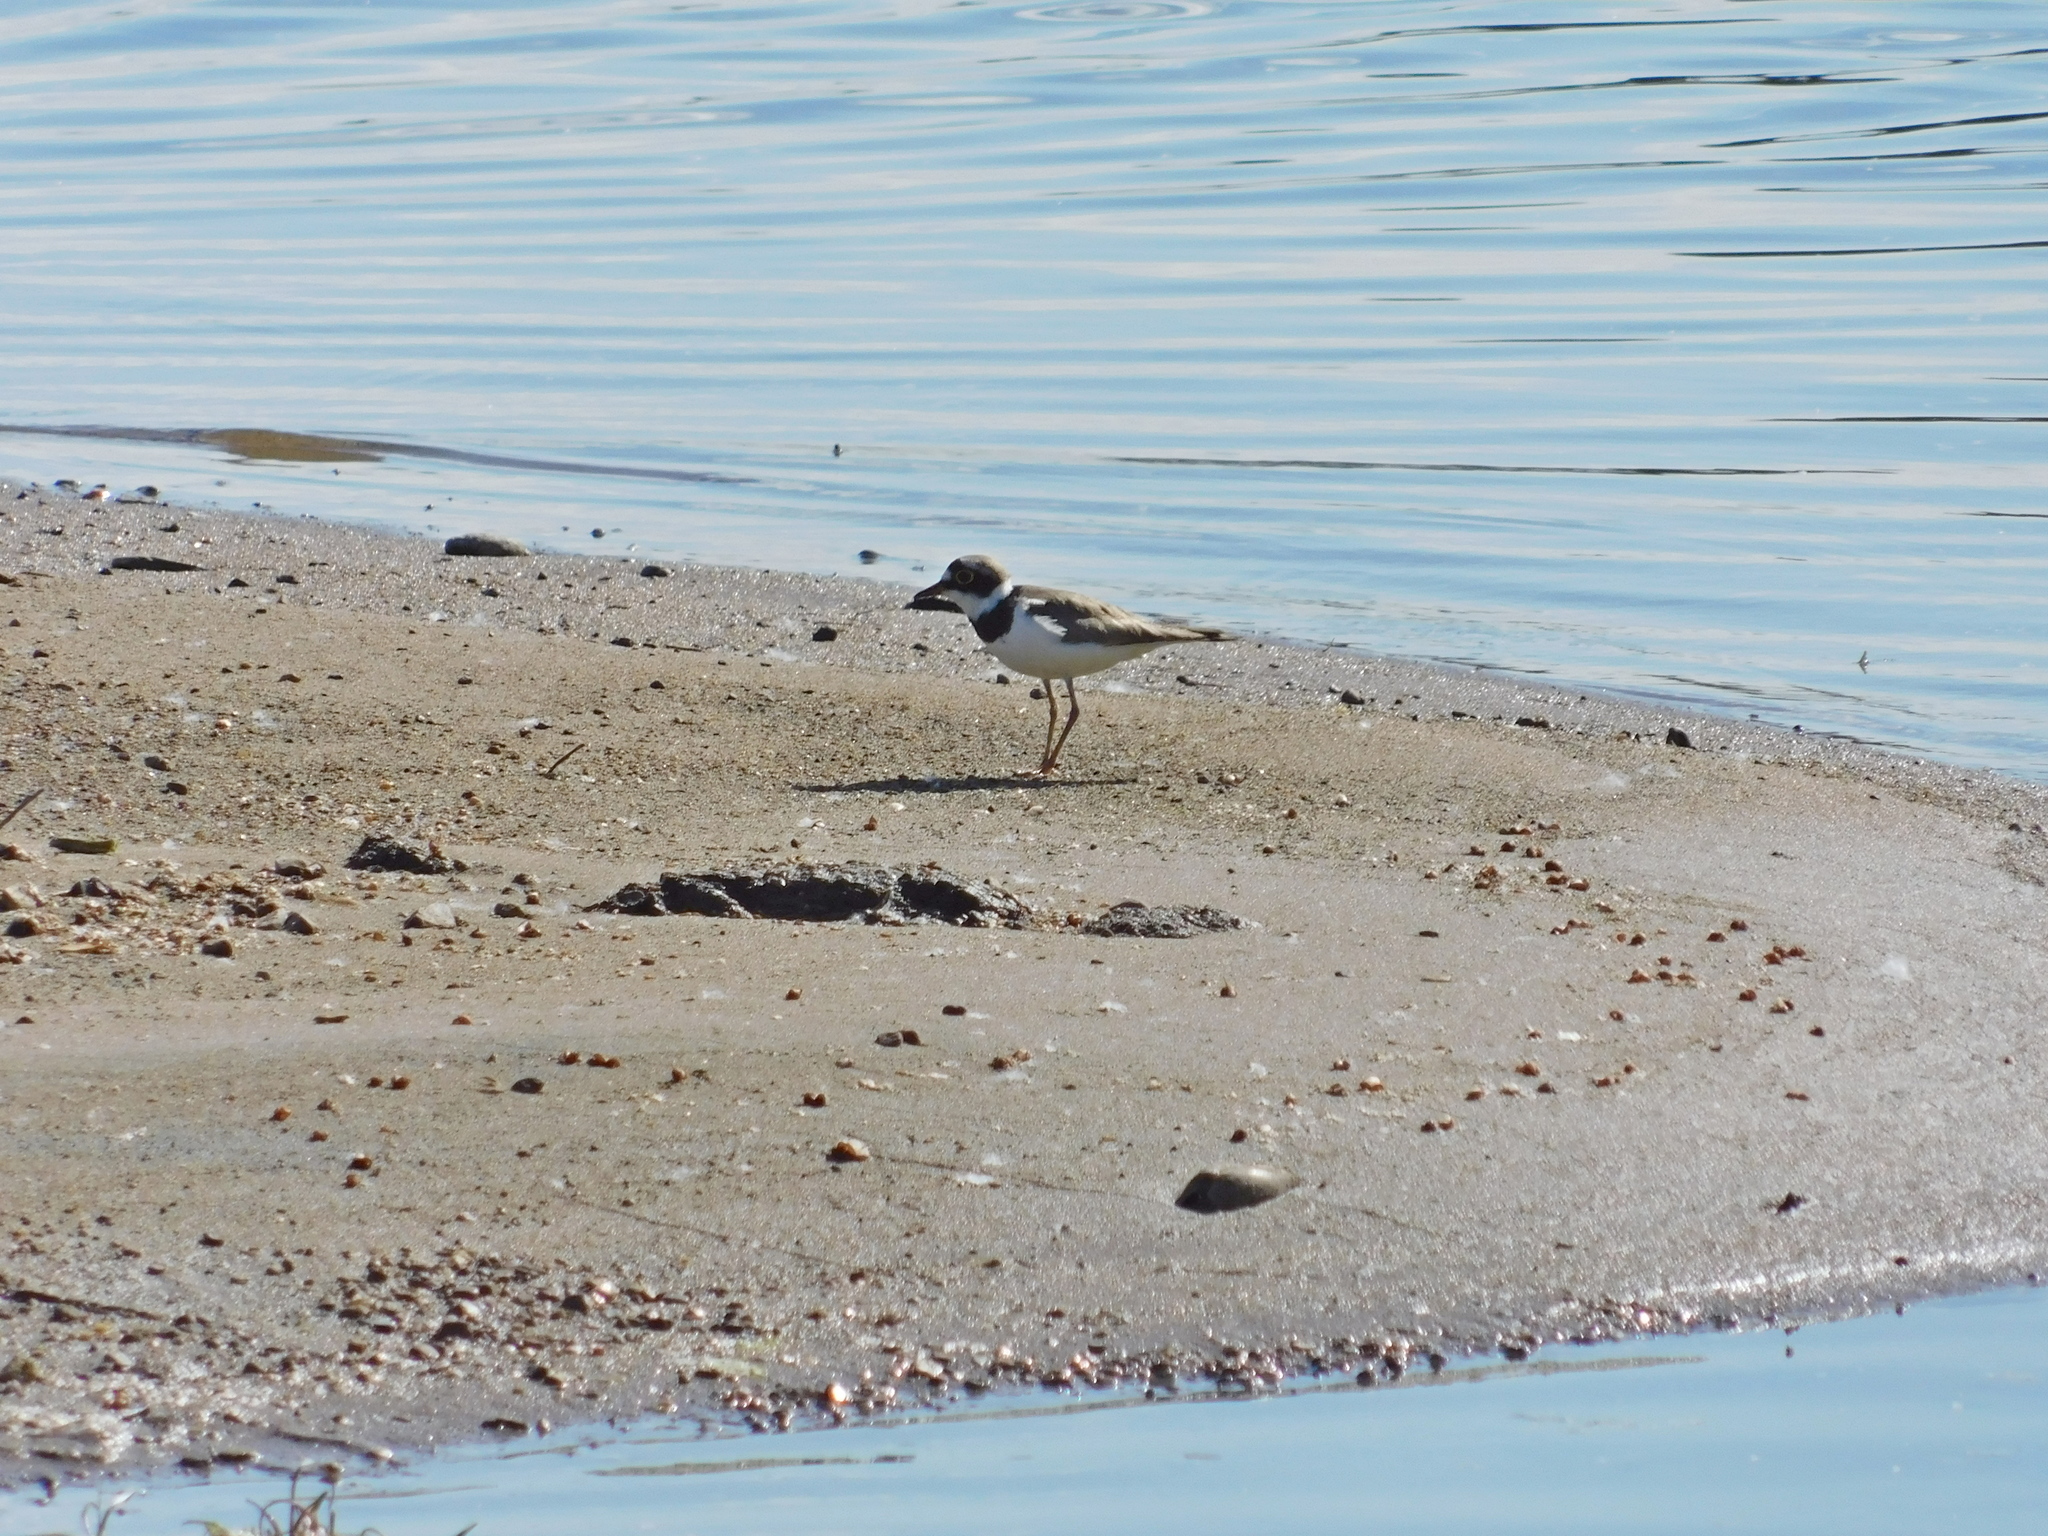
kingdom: Animalia
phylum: Chordata
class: Aves
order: Charadriiformes
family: Charadriidae
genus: Charadrius
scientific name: Charadrius dubius
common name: Little ringed plover
